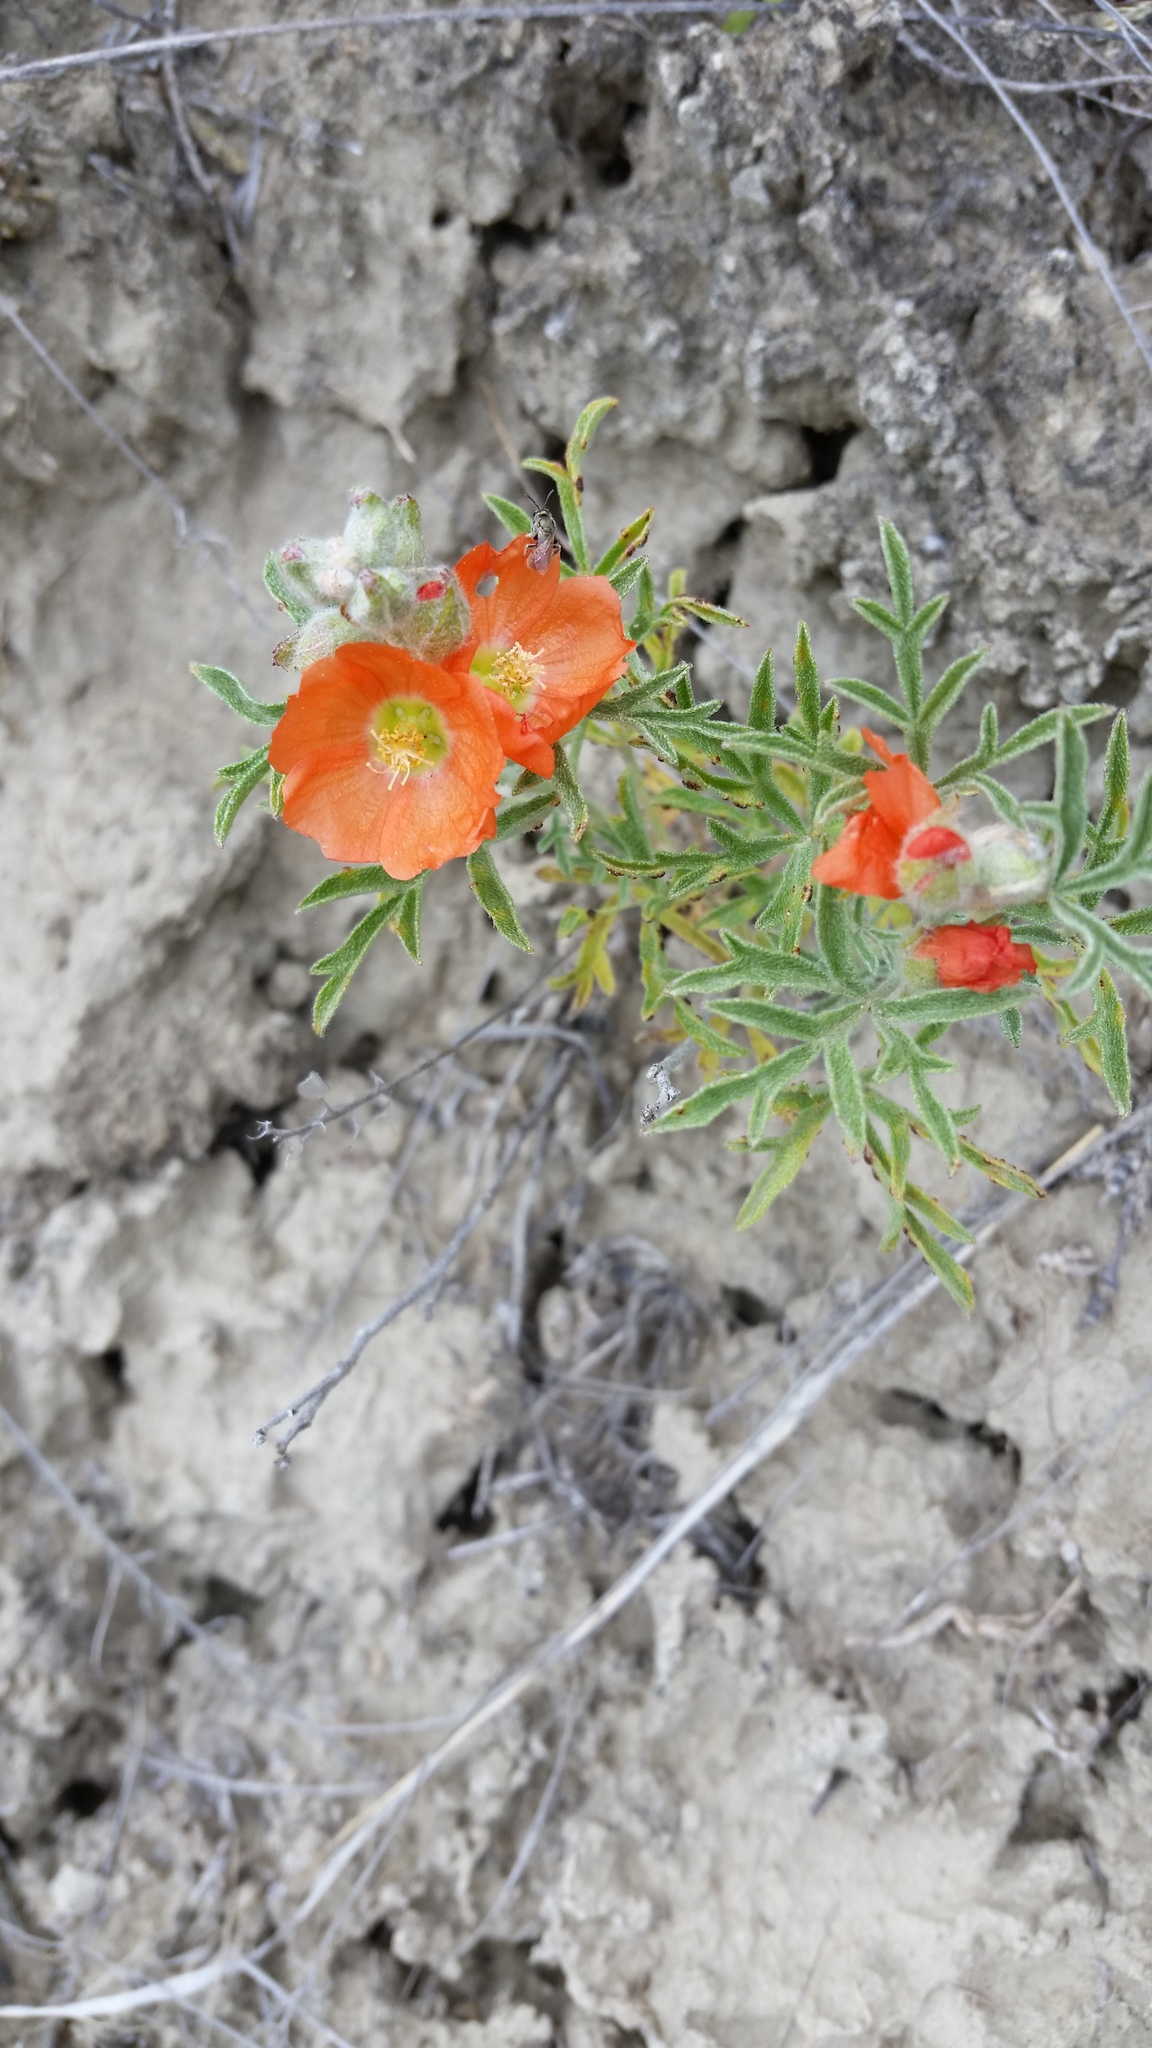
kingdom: Plantae
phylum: Tracheophyta
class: Magnoliopsida
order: Malvales
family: Malvaceae
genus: Sphaeralcea
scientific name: Sphaeralcea coccinea
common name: Moss-rose
